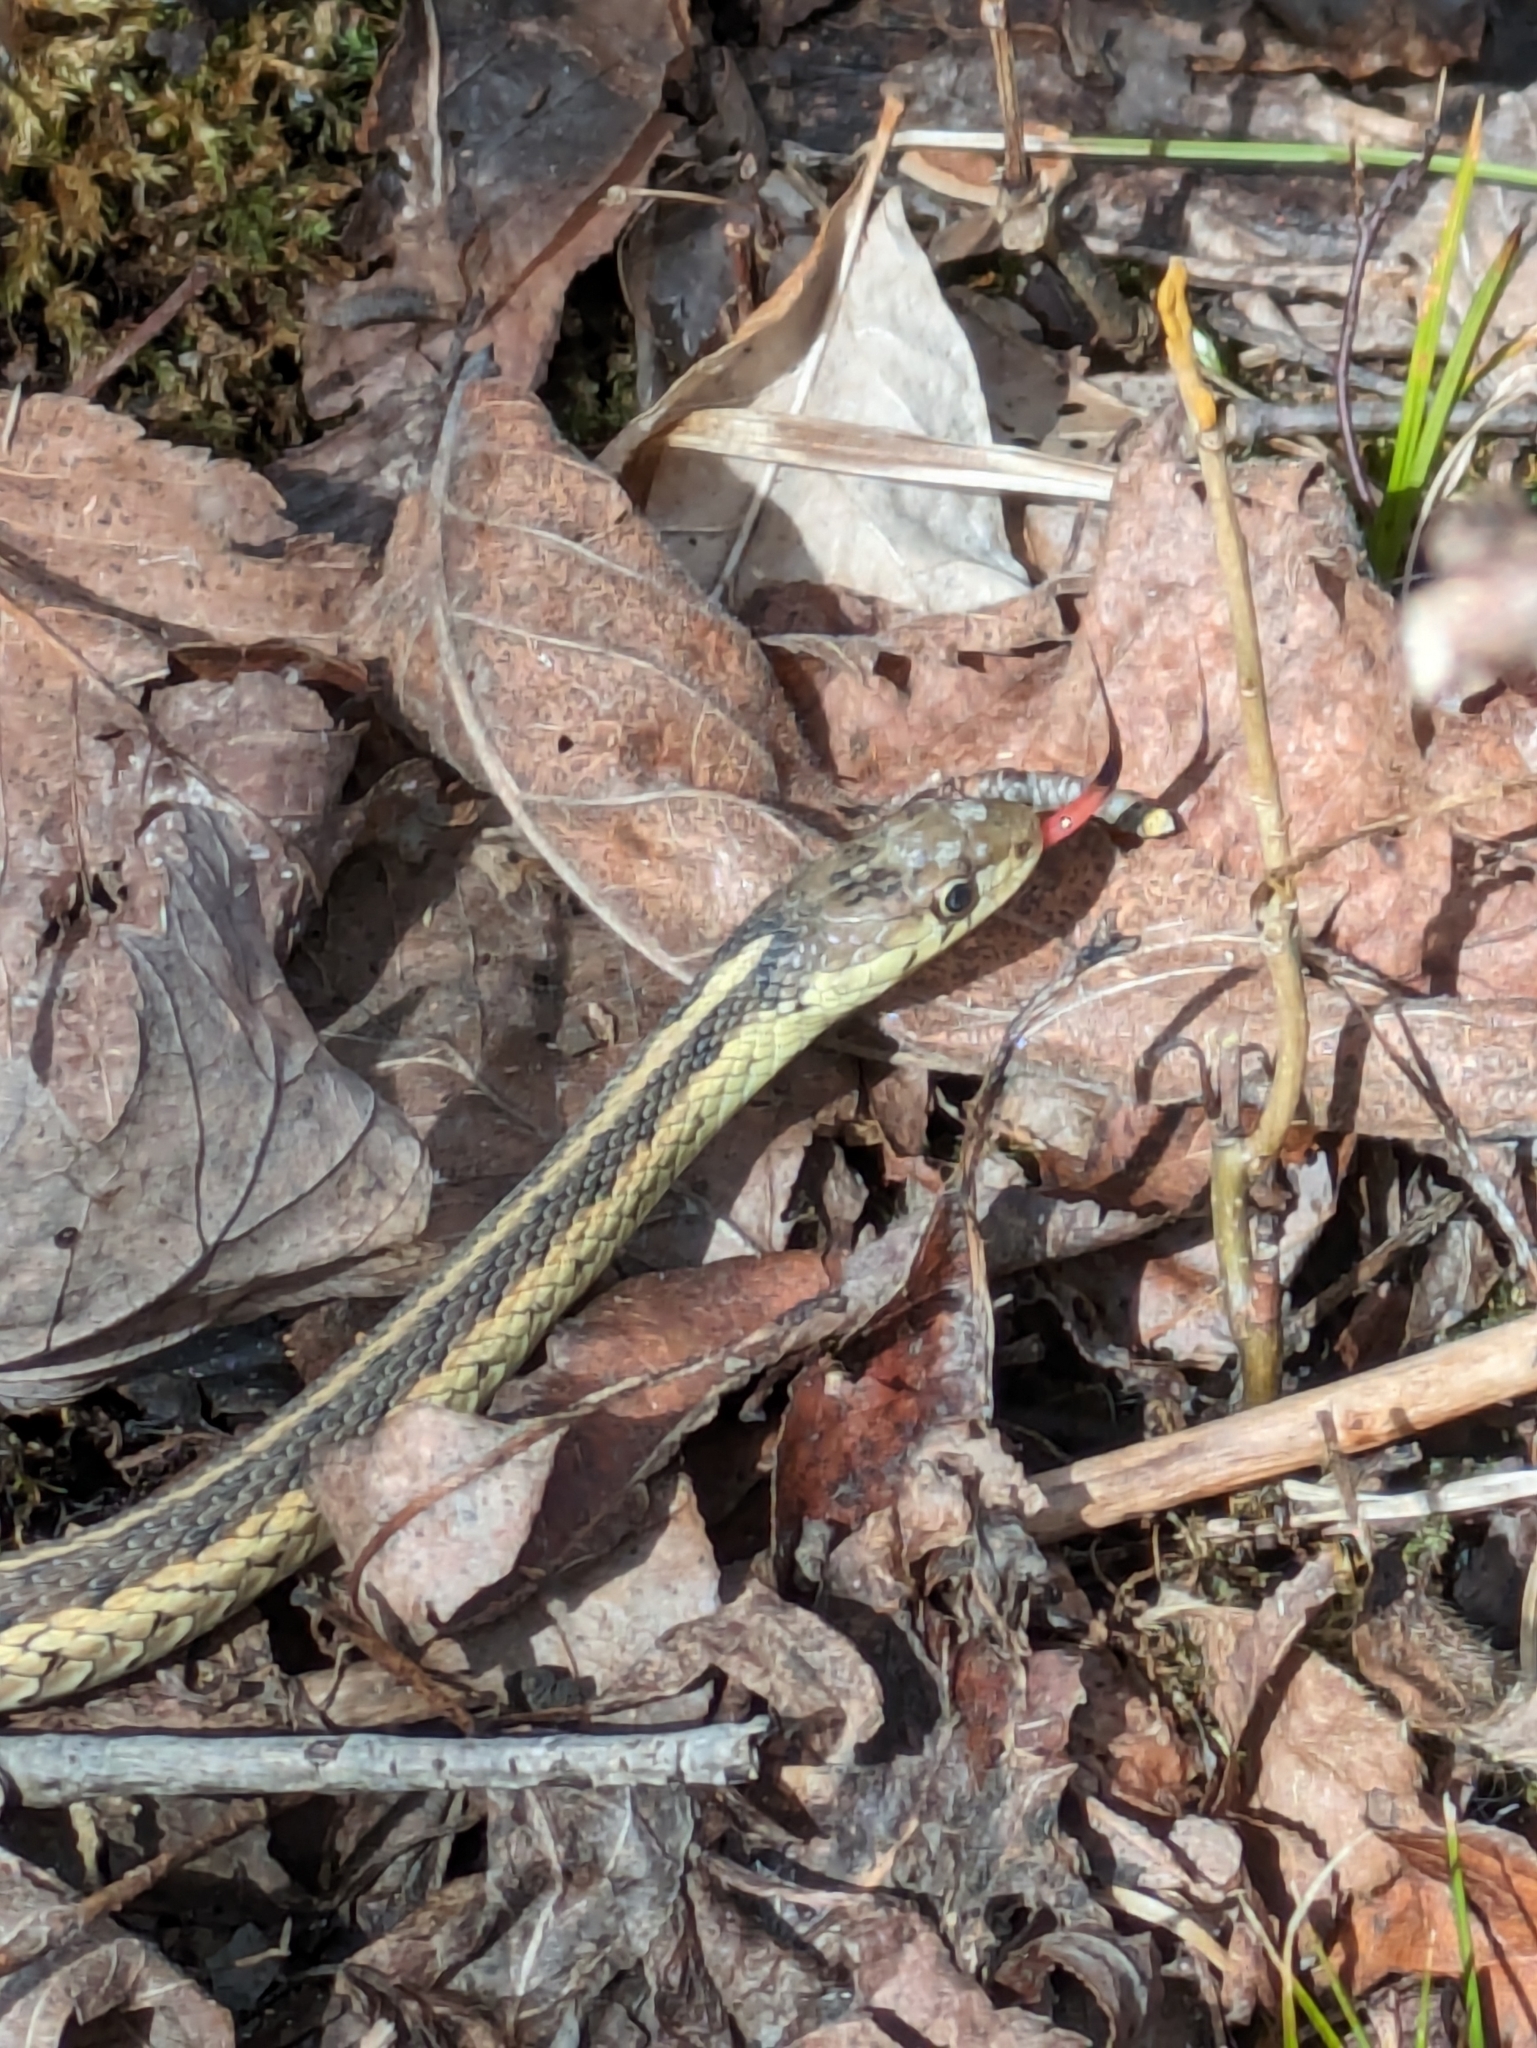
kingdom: Animalia
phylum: Chordata
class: Squamata
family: Colubridae
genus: Thamnophis
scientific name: Thamnophis sirtalis
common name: Common garter snake
